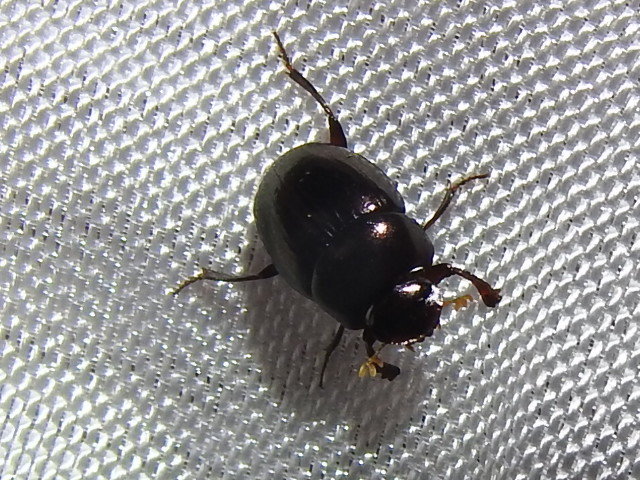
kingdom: Animalia
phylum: Arthropoda
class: Insecta
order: Coleoptera
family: Scarabaeidae
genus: Pseudocanthon
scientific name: Pseudocanthon perplexus
